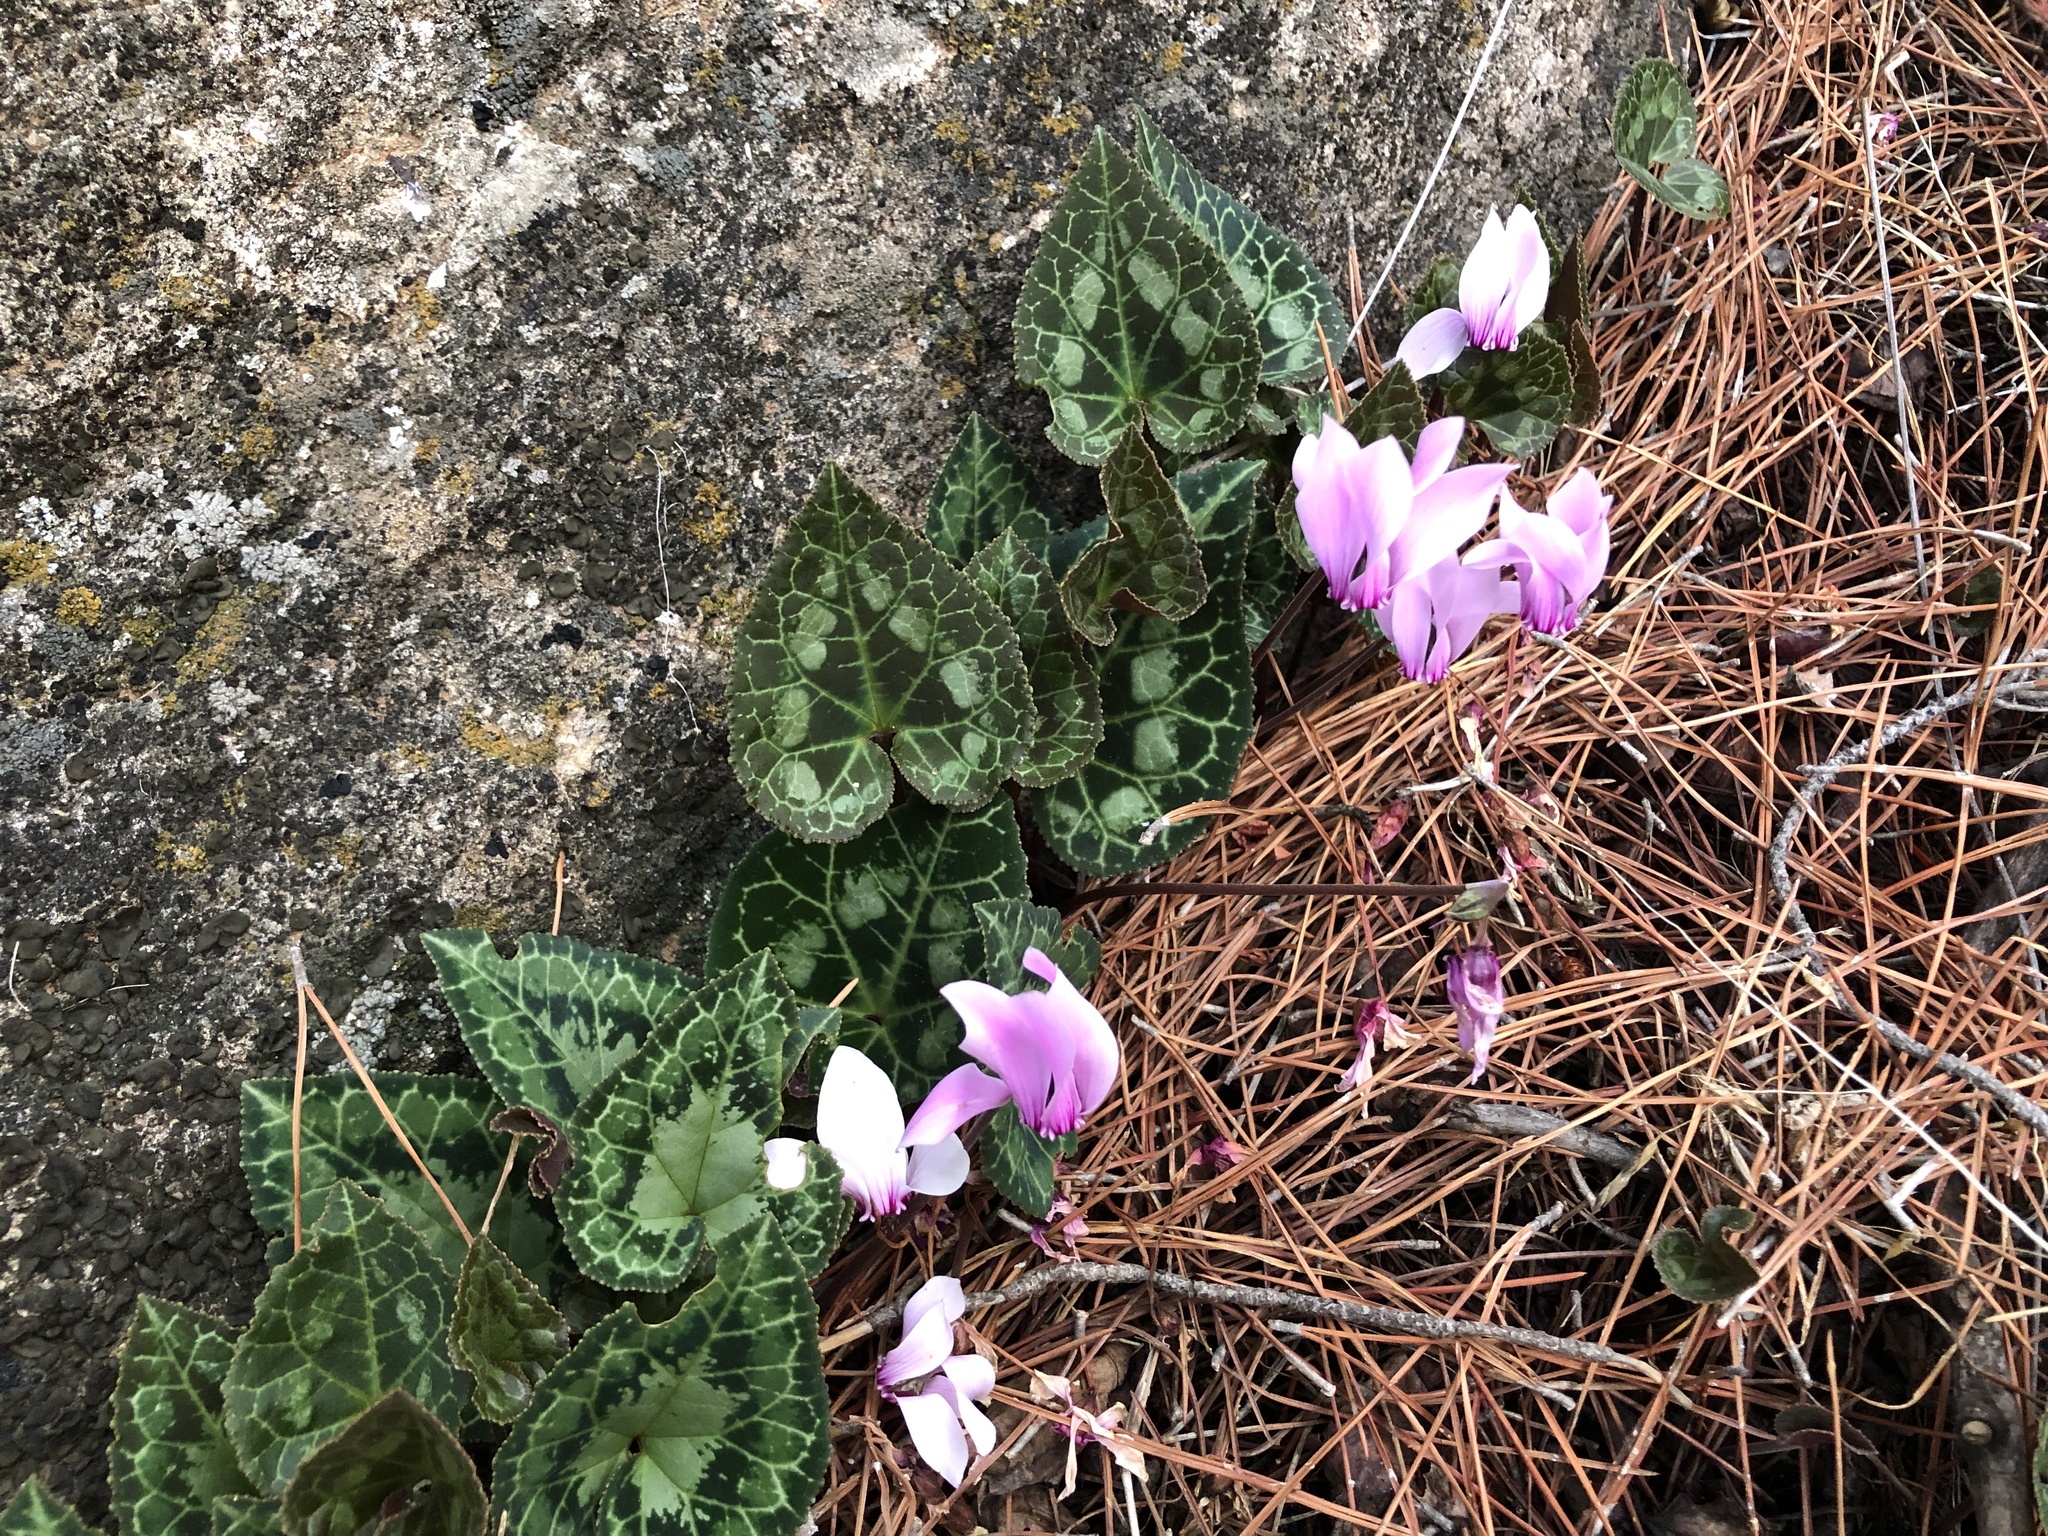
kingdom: Plantae
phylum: Tracheophyta
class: Magnoliopsida
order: Ericales
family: Primulaceae
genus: Cyclamen
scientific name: Cyclamen graecum
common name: Greek cyclamen
